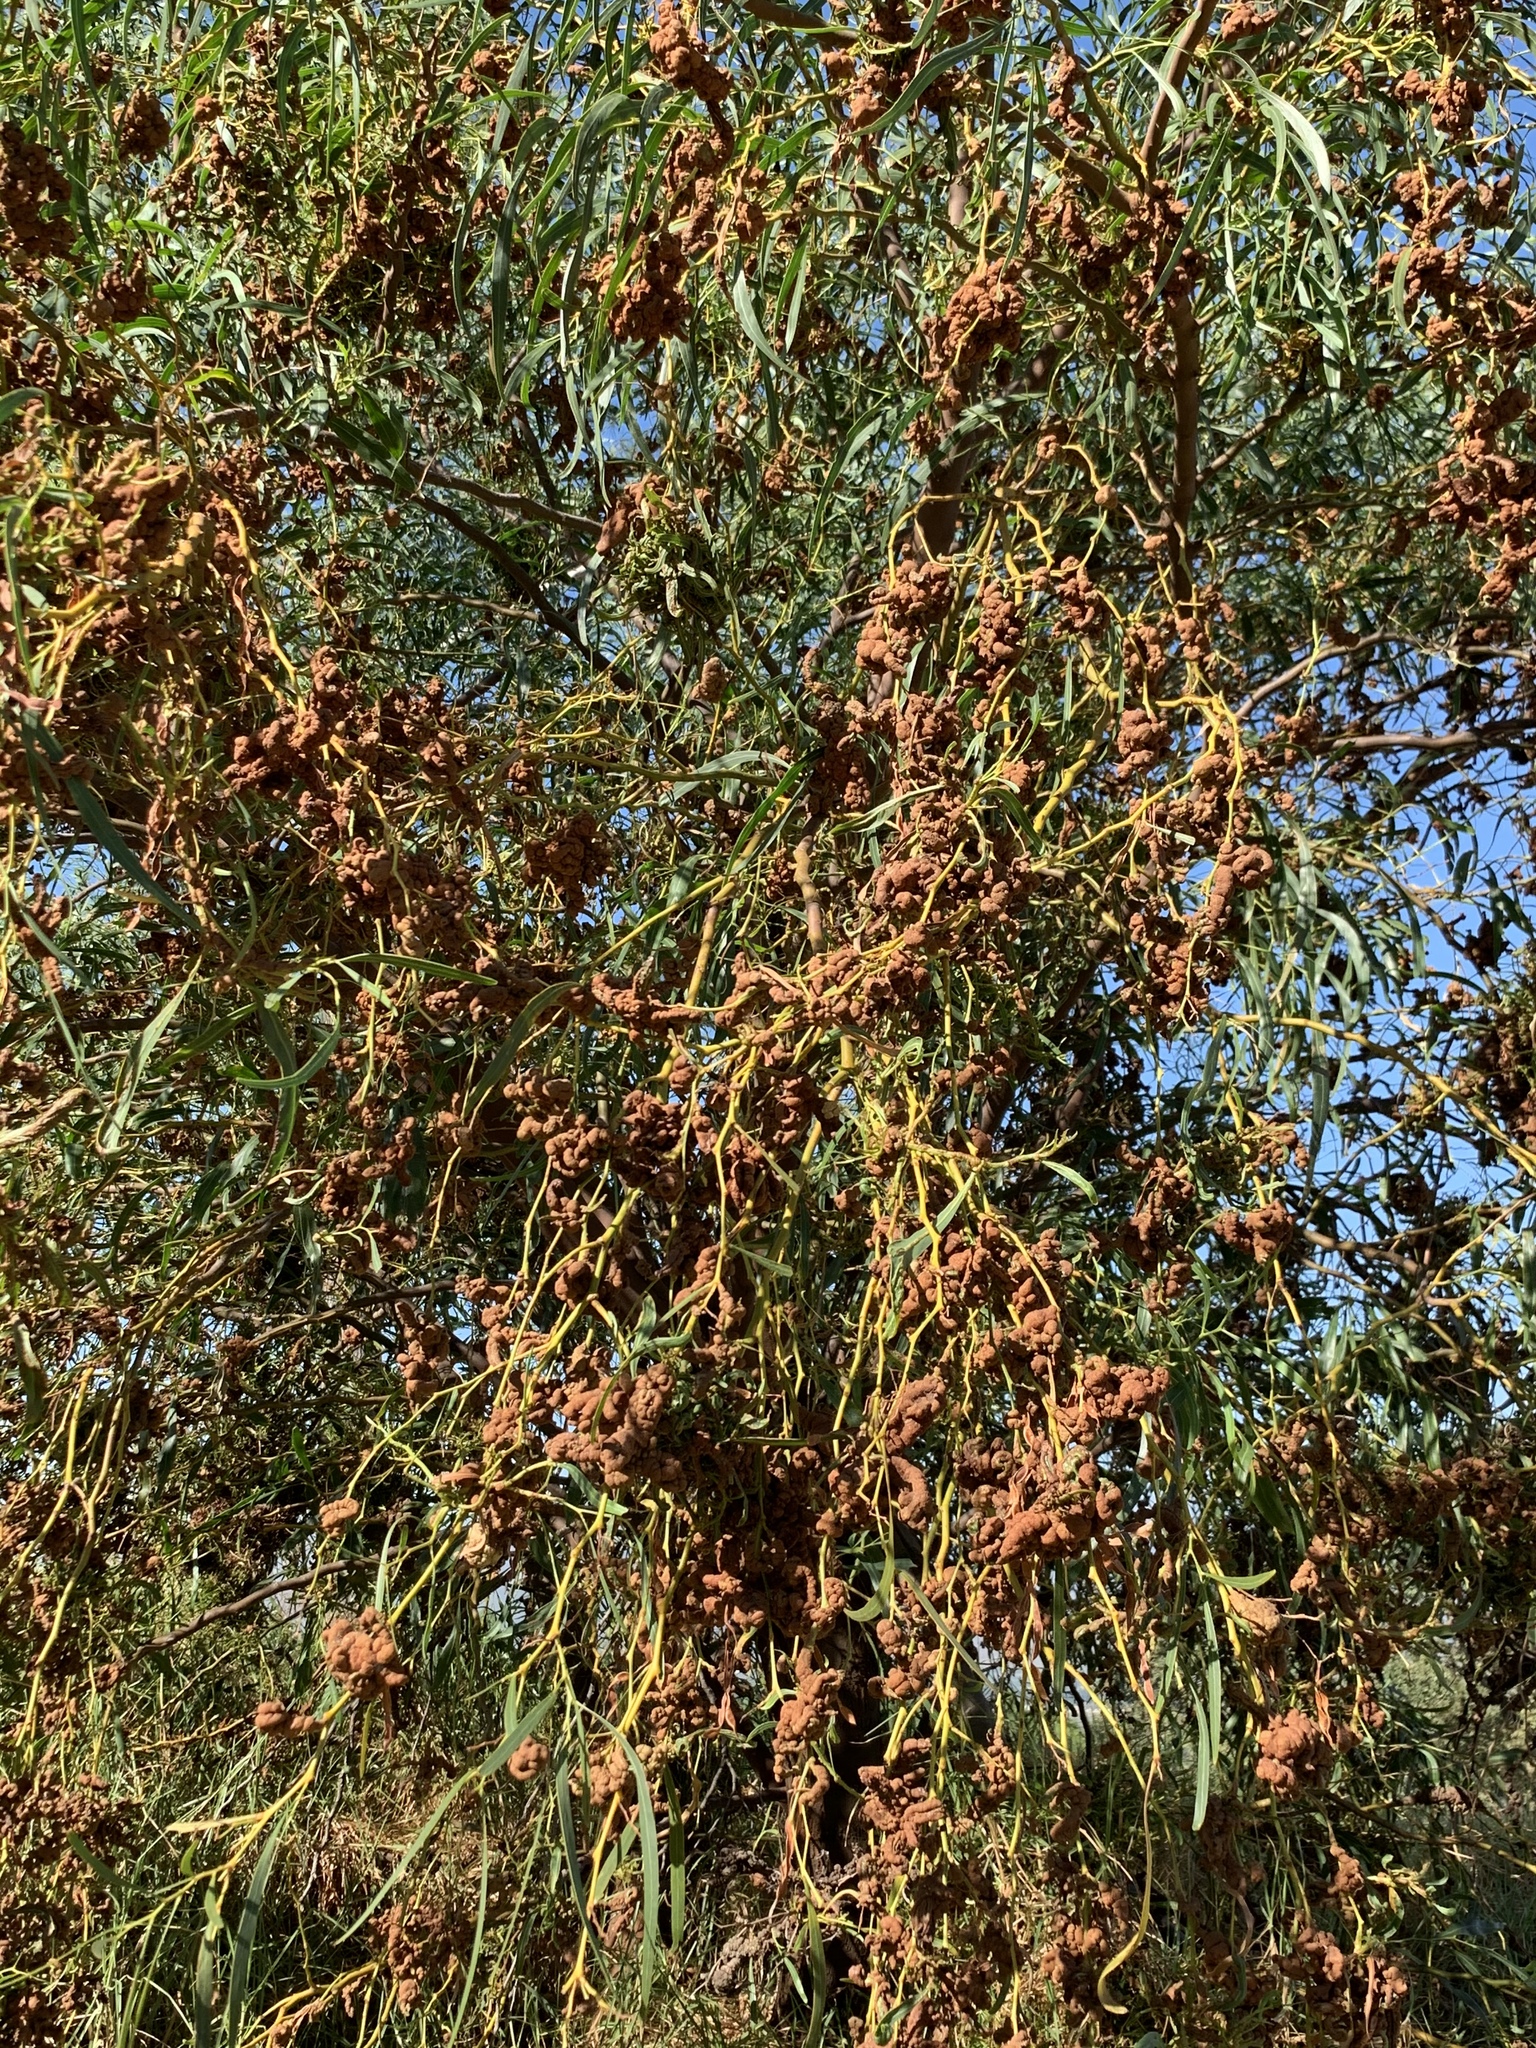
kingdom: Fungi
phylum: Basidiomycota
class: Pucciniomycetes
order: Pucciniales
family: Uromycladiaceae
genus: Uromycladium
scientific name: Uromycladium morrisii
